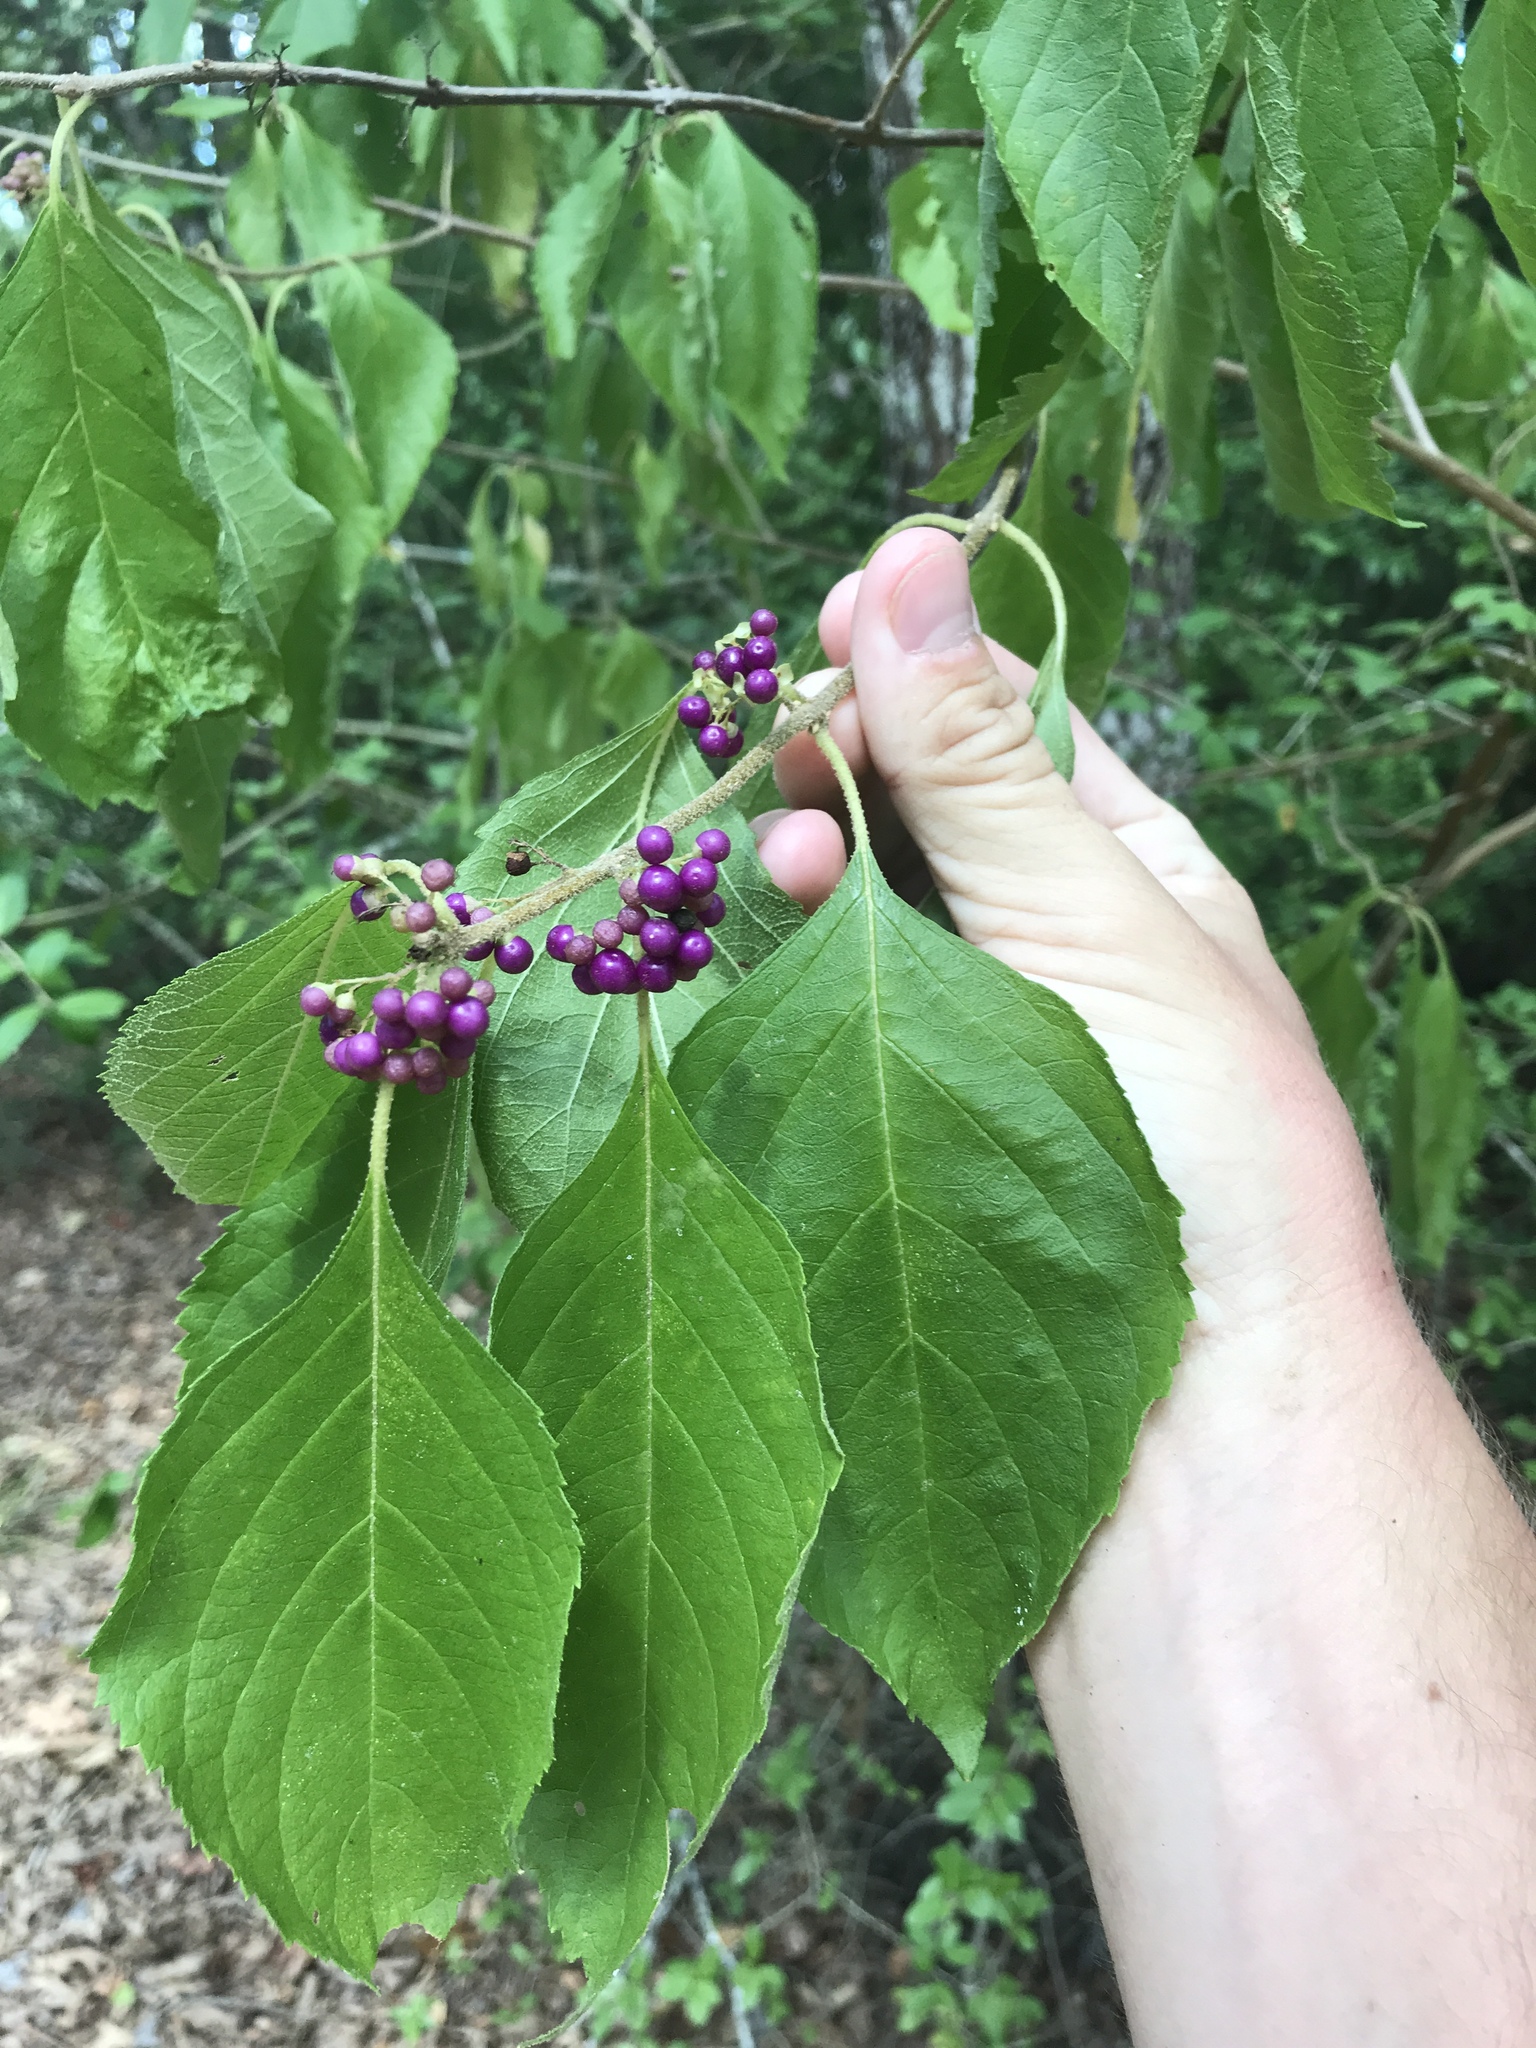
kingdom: Plantae
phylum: Tracheophyta
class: Magnoliopsida
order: Lamiales
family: Lamiaceae
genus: Callicarpa
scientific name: Callicarpa americana
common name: American beautyberry
